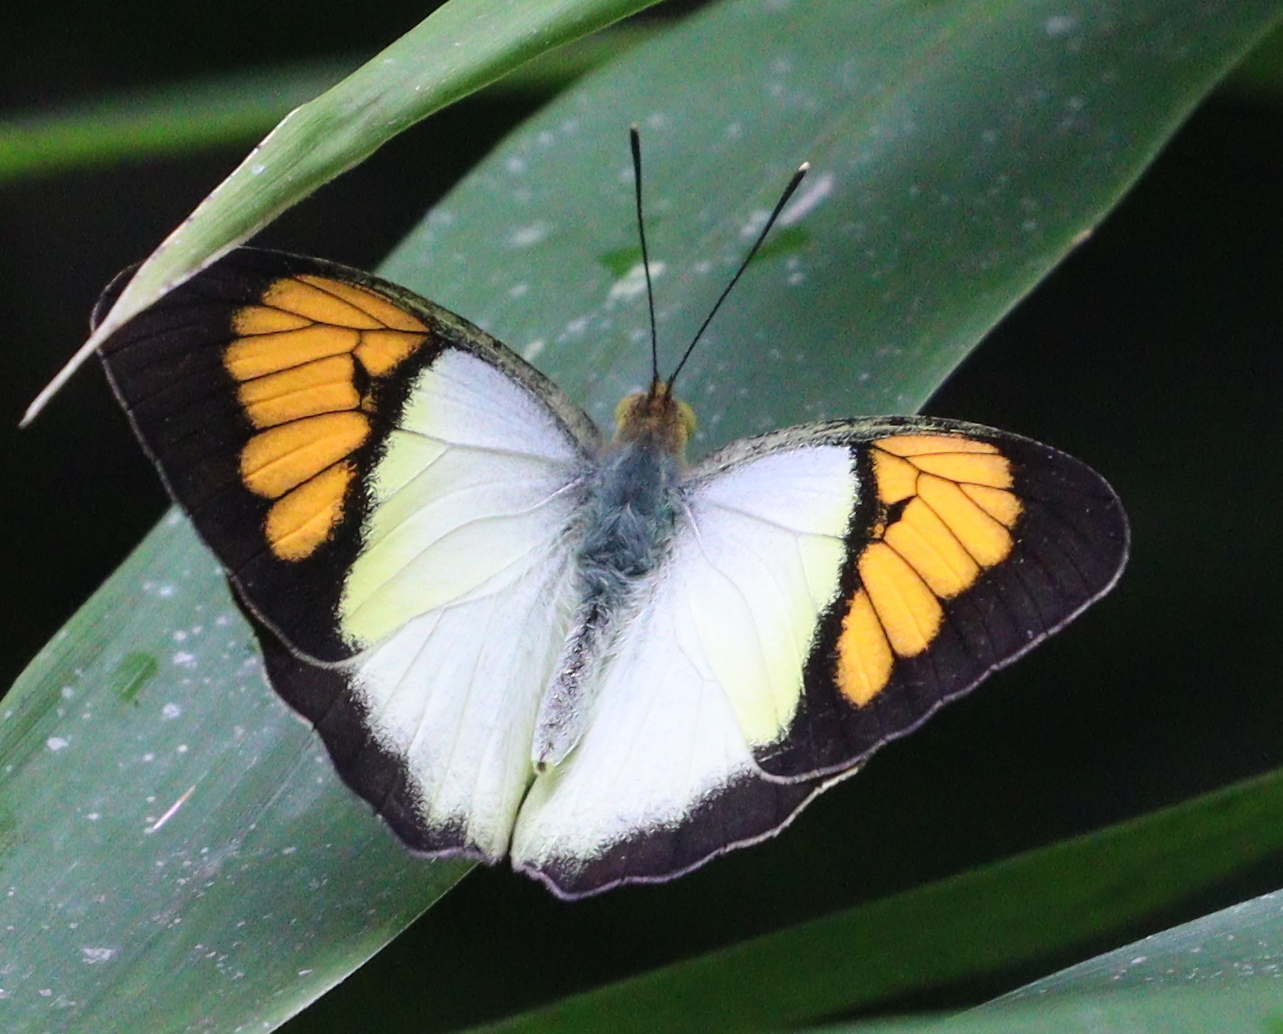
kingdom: Animalia
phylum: Arthropoda
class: Insecta
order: Lepidoptera
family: Pieridae
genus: Ixias
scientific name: Ixias pyrene
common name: Yellow orange tip
